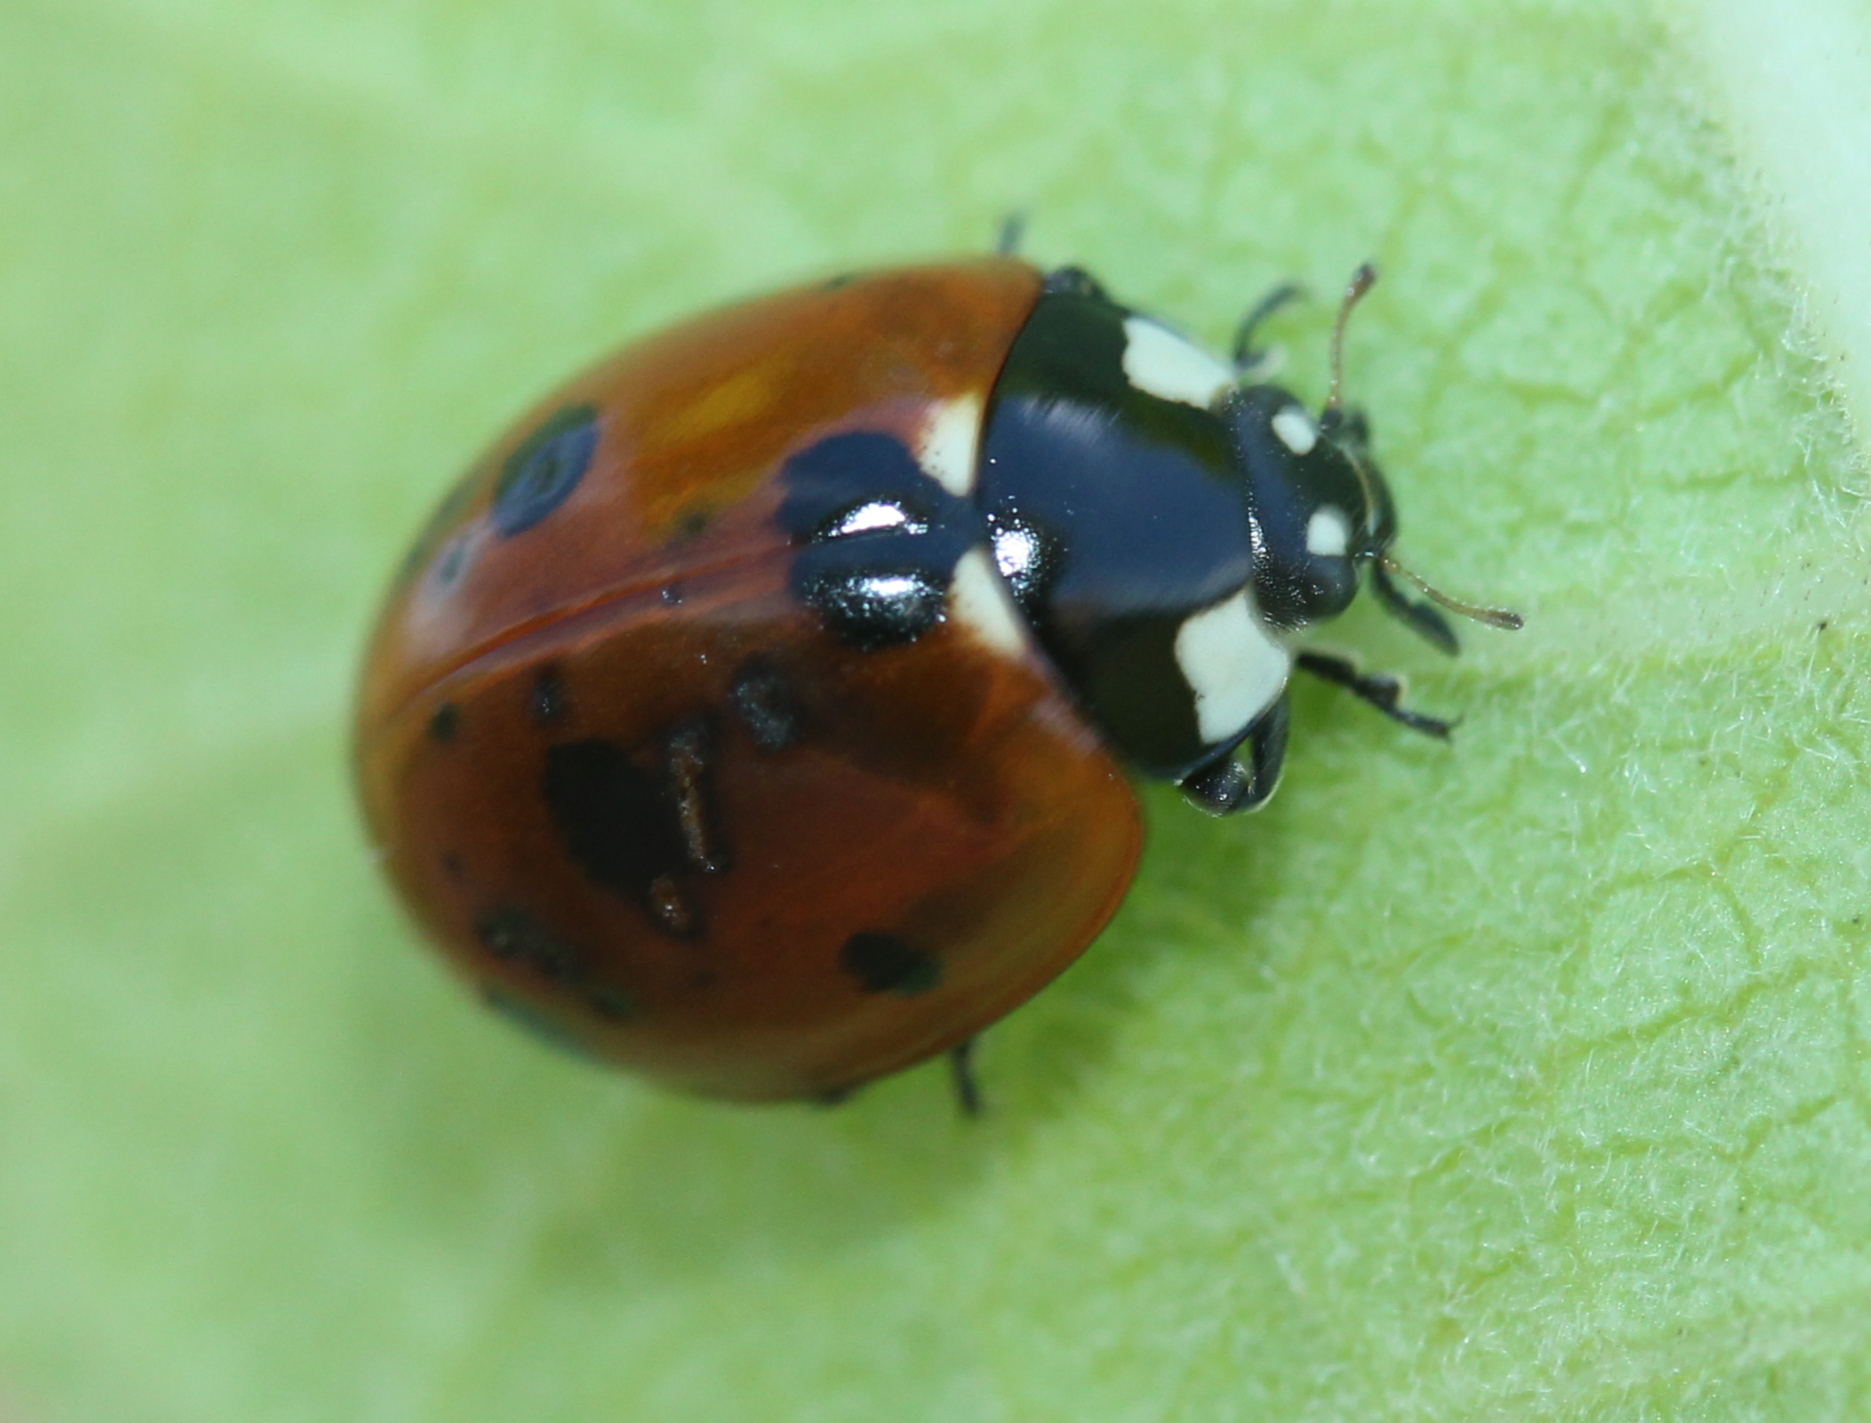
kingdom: Animalia
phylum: Arthropoda
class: Insecta
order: Coleoptera
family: Coccinellidae
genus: Coccinella
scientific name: Coccinella septempunctata
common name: Sevenspotted lady beetle
